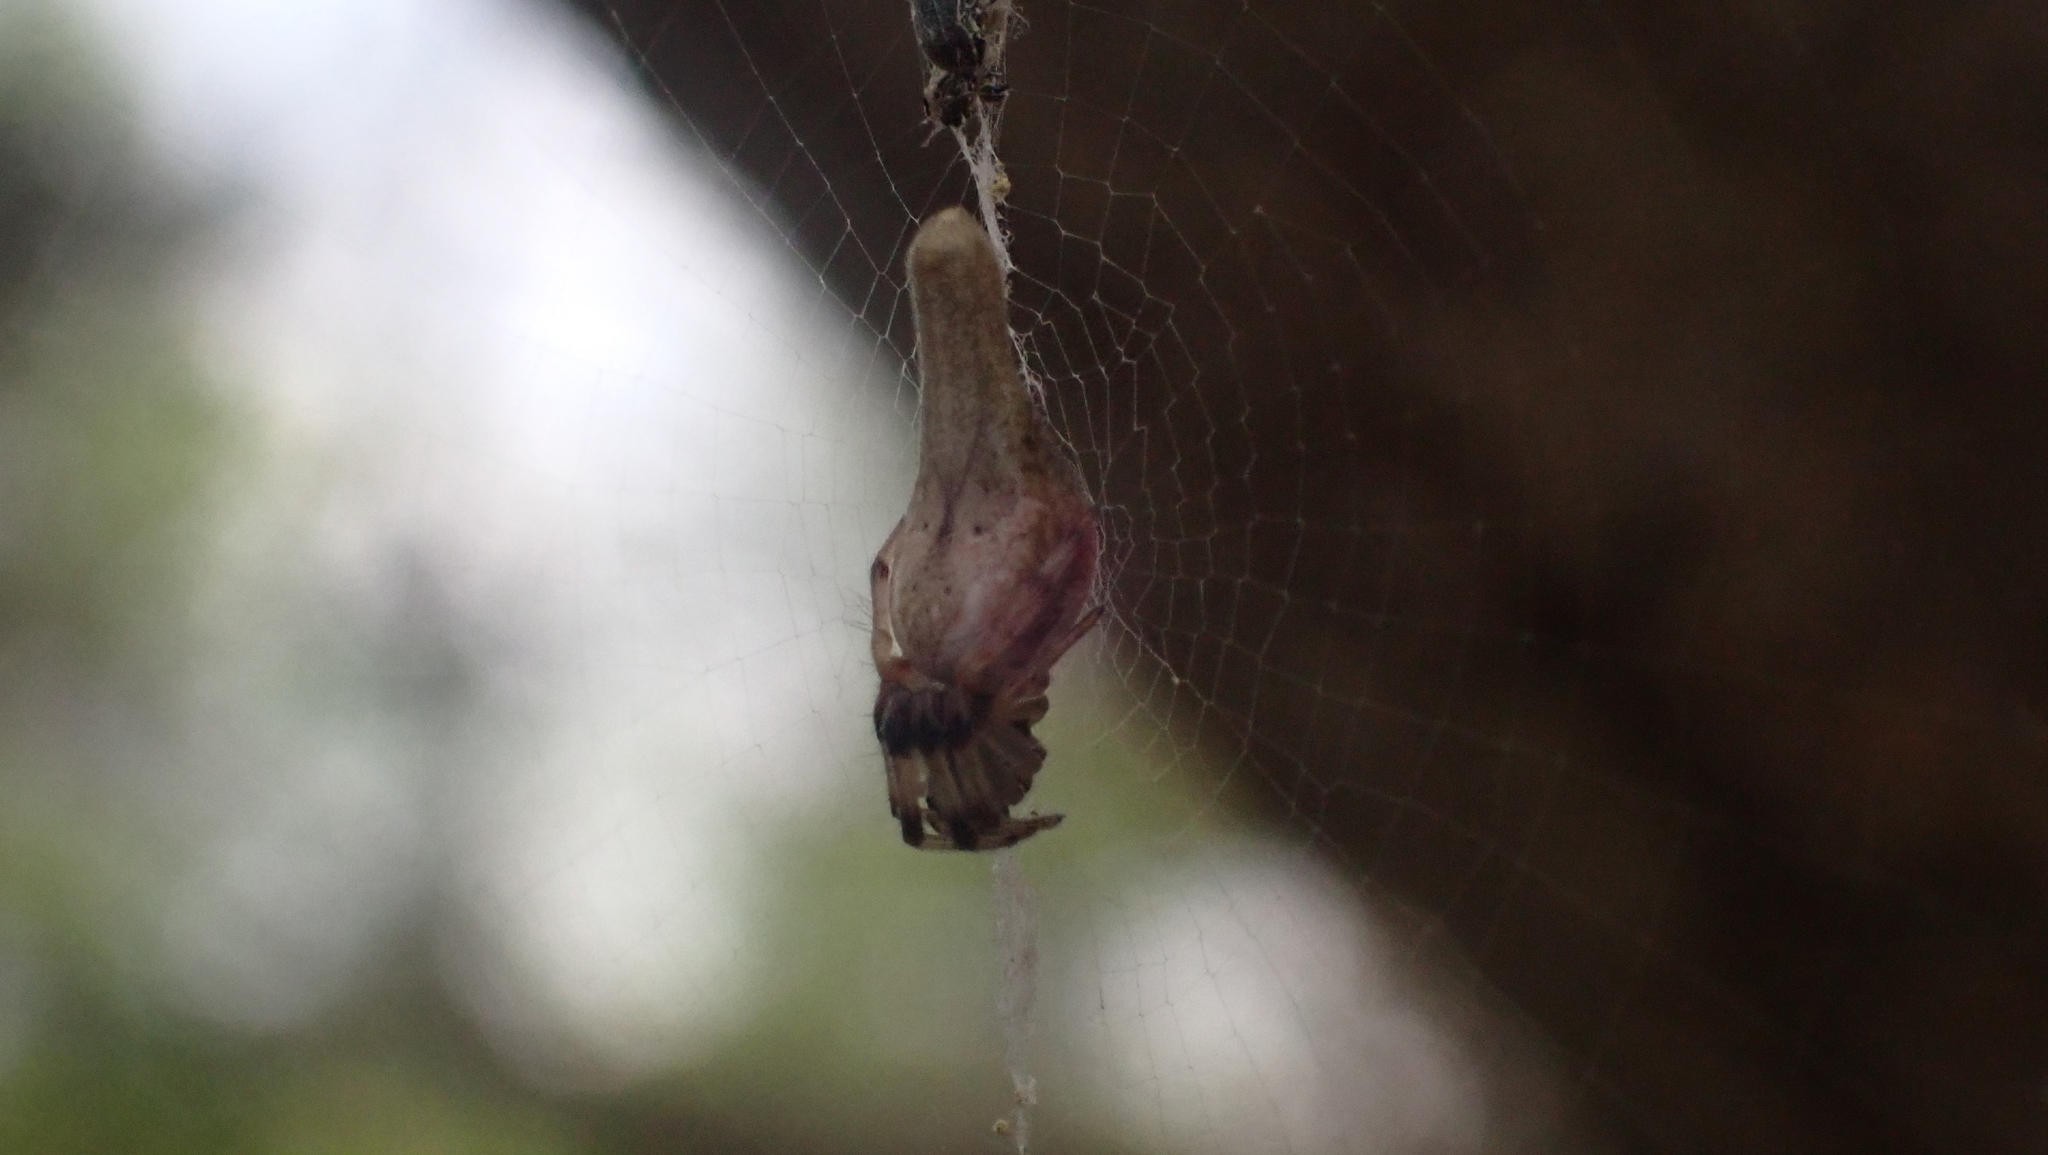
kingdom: Animalia
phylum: Arthropoda
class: Arachnida
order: Araneae
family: Araneidae
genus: Cyclosa
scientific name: Cyclosa conica
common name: Conical trashline orbweaver
